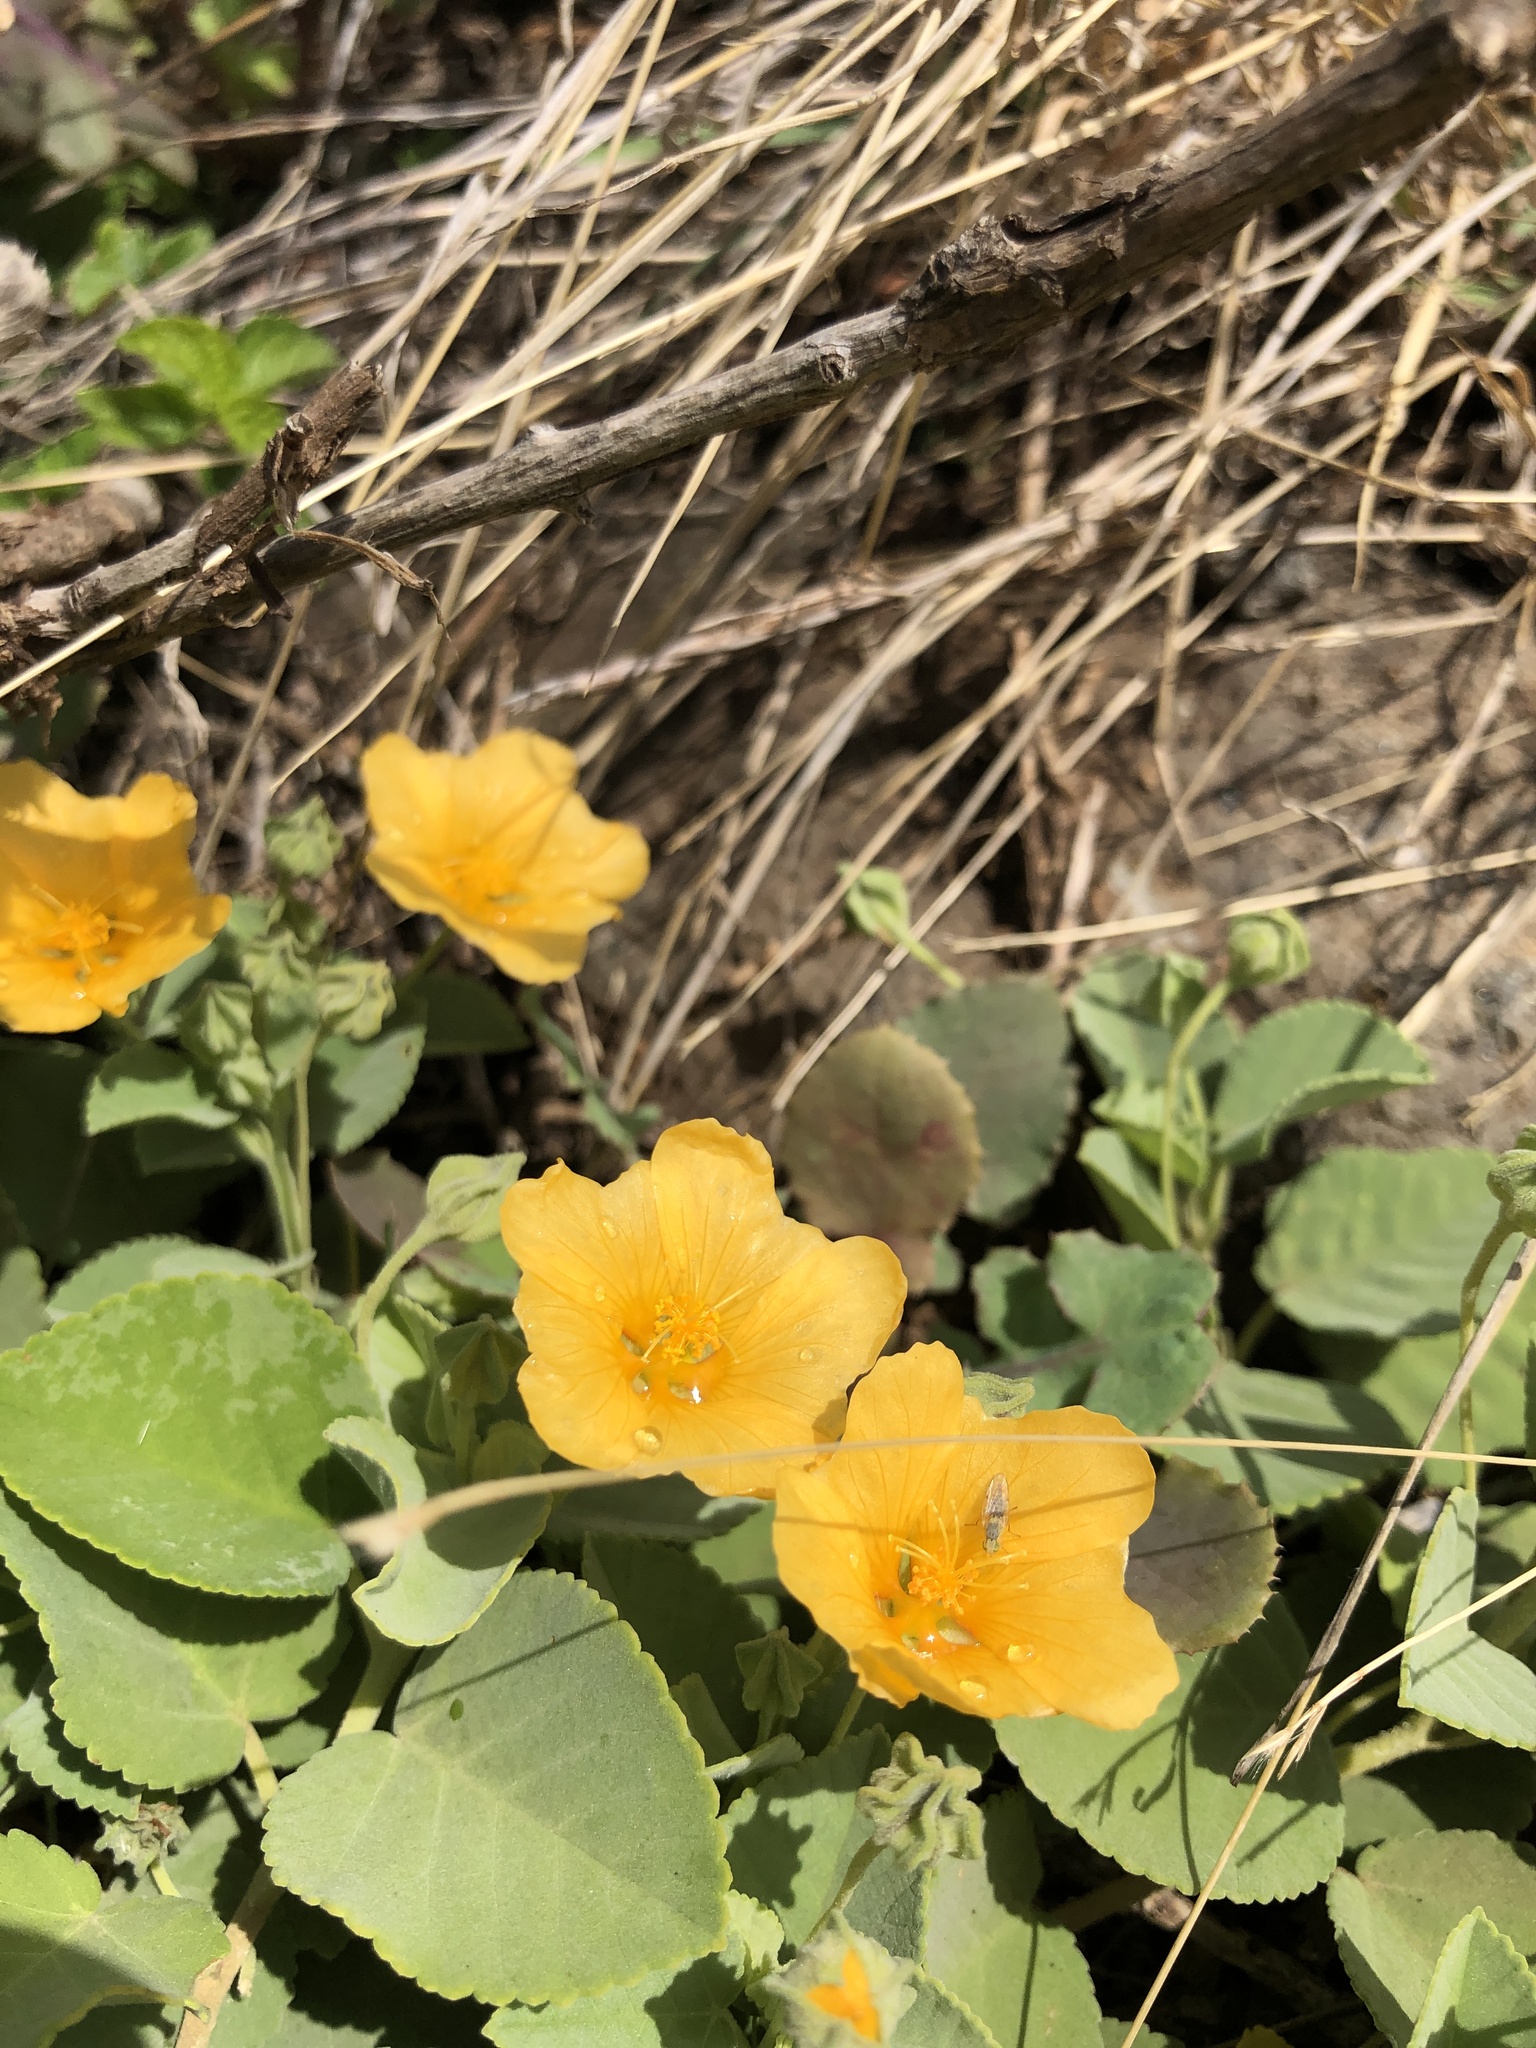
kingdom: Plantae
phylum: Tracheophyta
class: Magnoliopsida
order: Malvales
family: Malvaceae
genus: Sida
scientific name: Sida fallax
